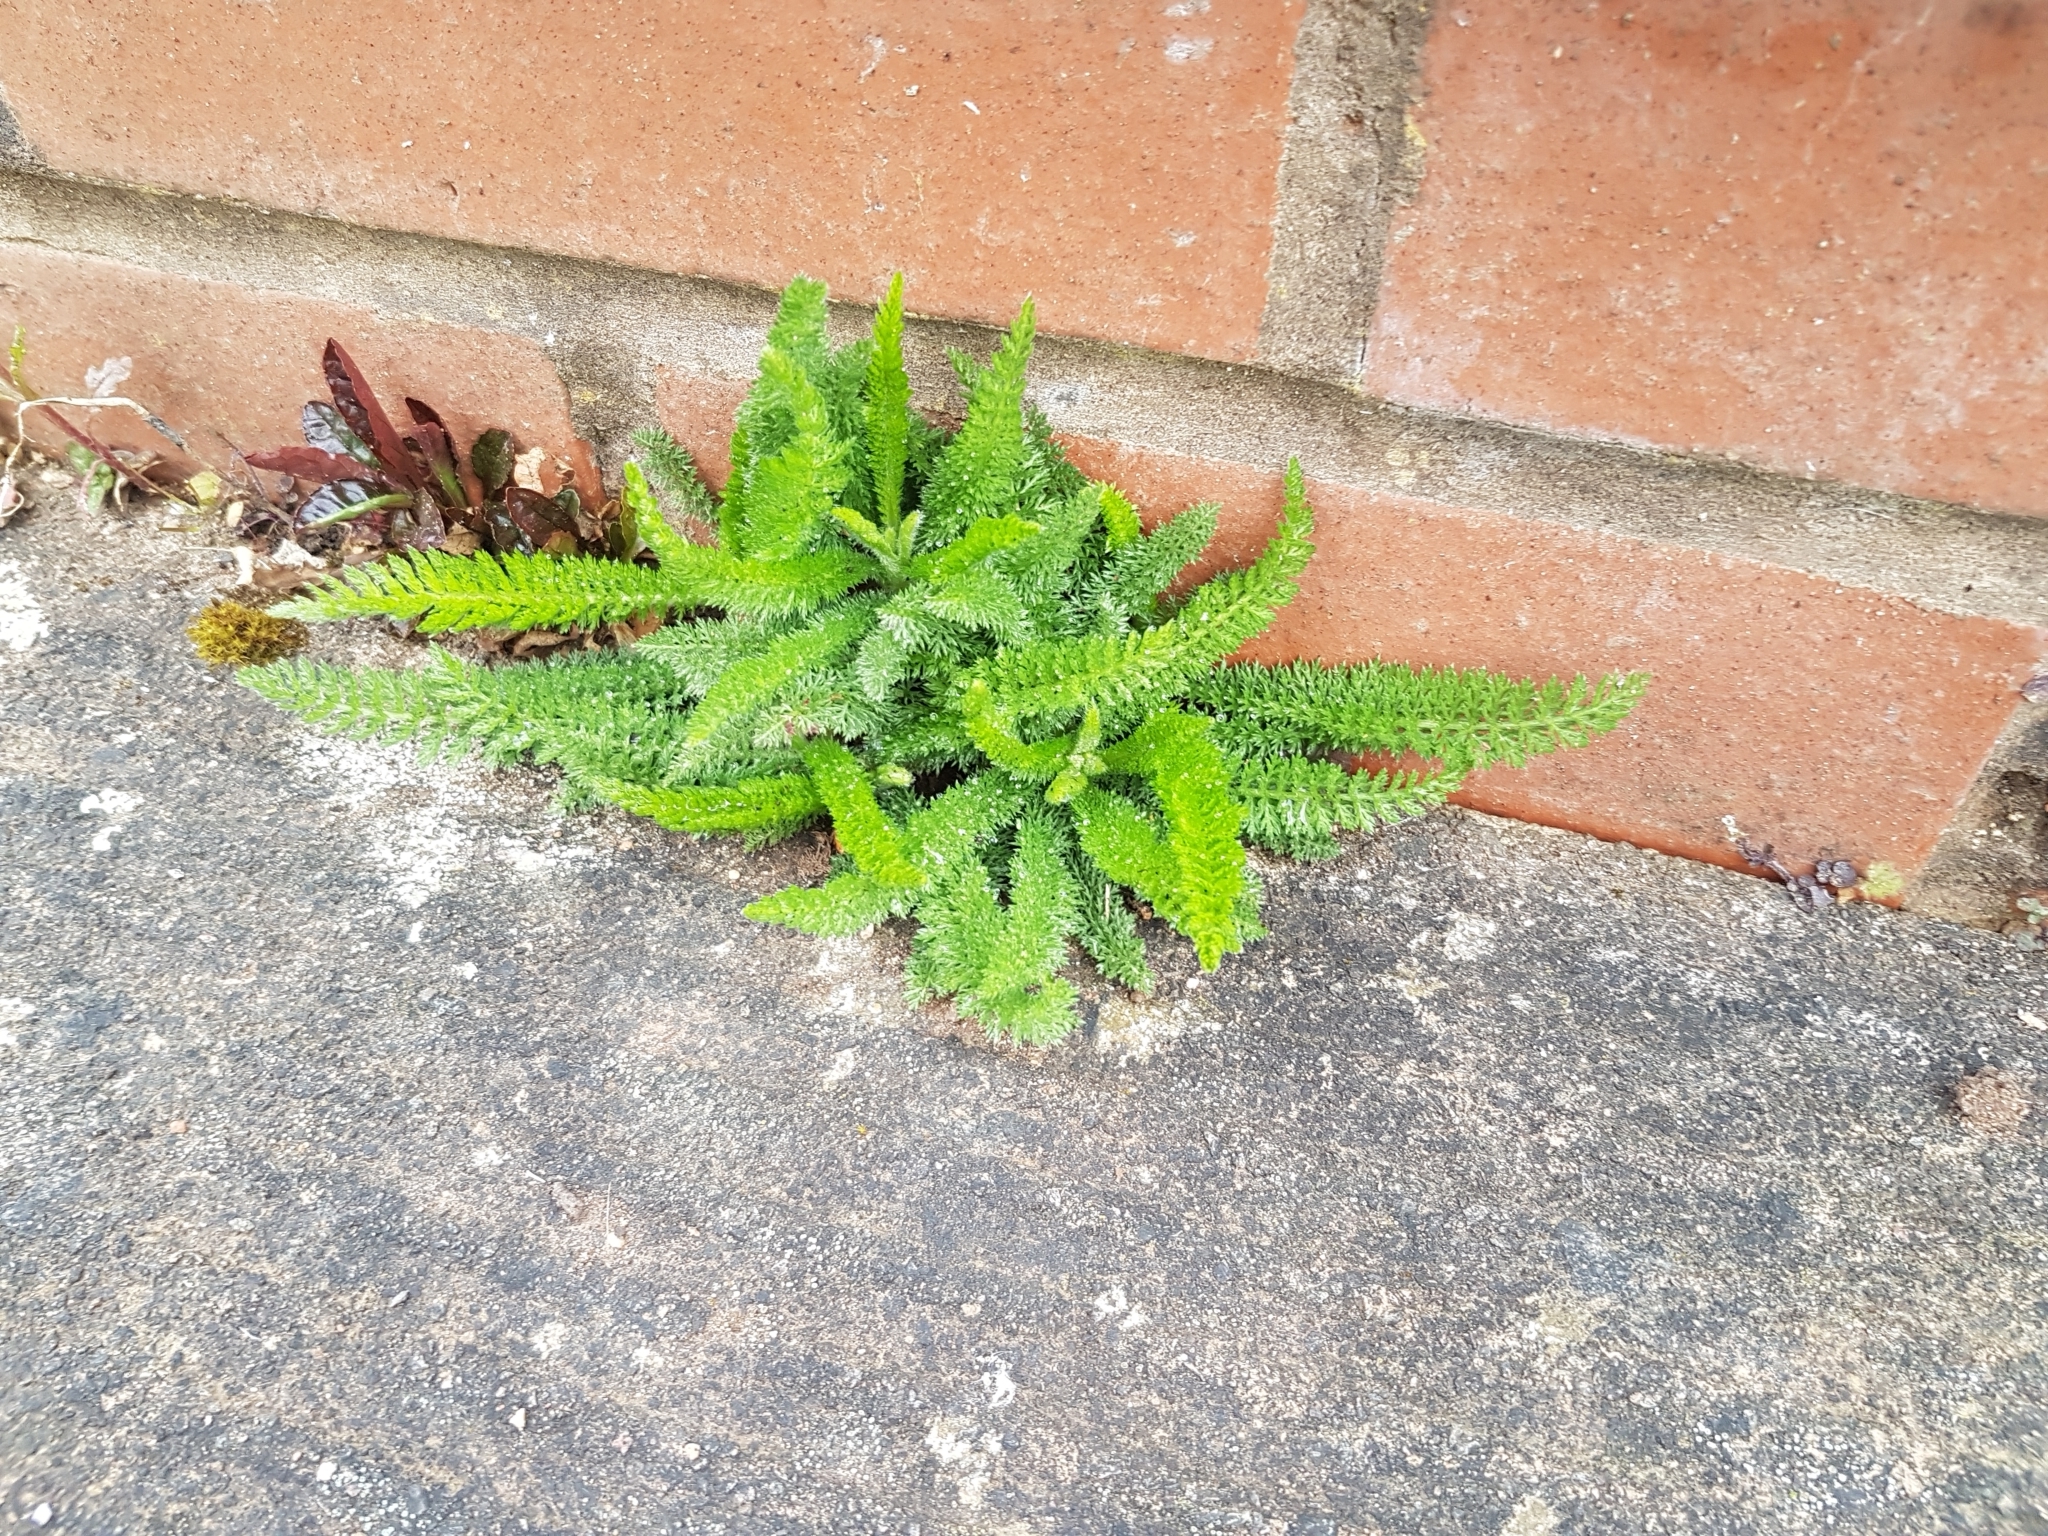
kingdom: Plantae
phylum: Tracheophyta
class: Magnoliopsida
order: Asterales
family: Asteraceae
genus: Achillea
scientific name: Achillea millefolium
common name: Yarrow
